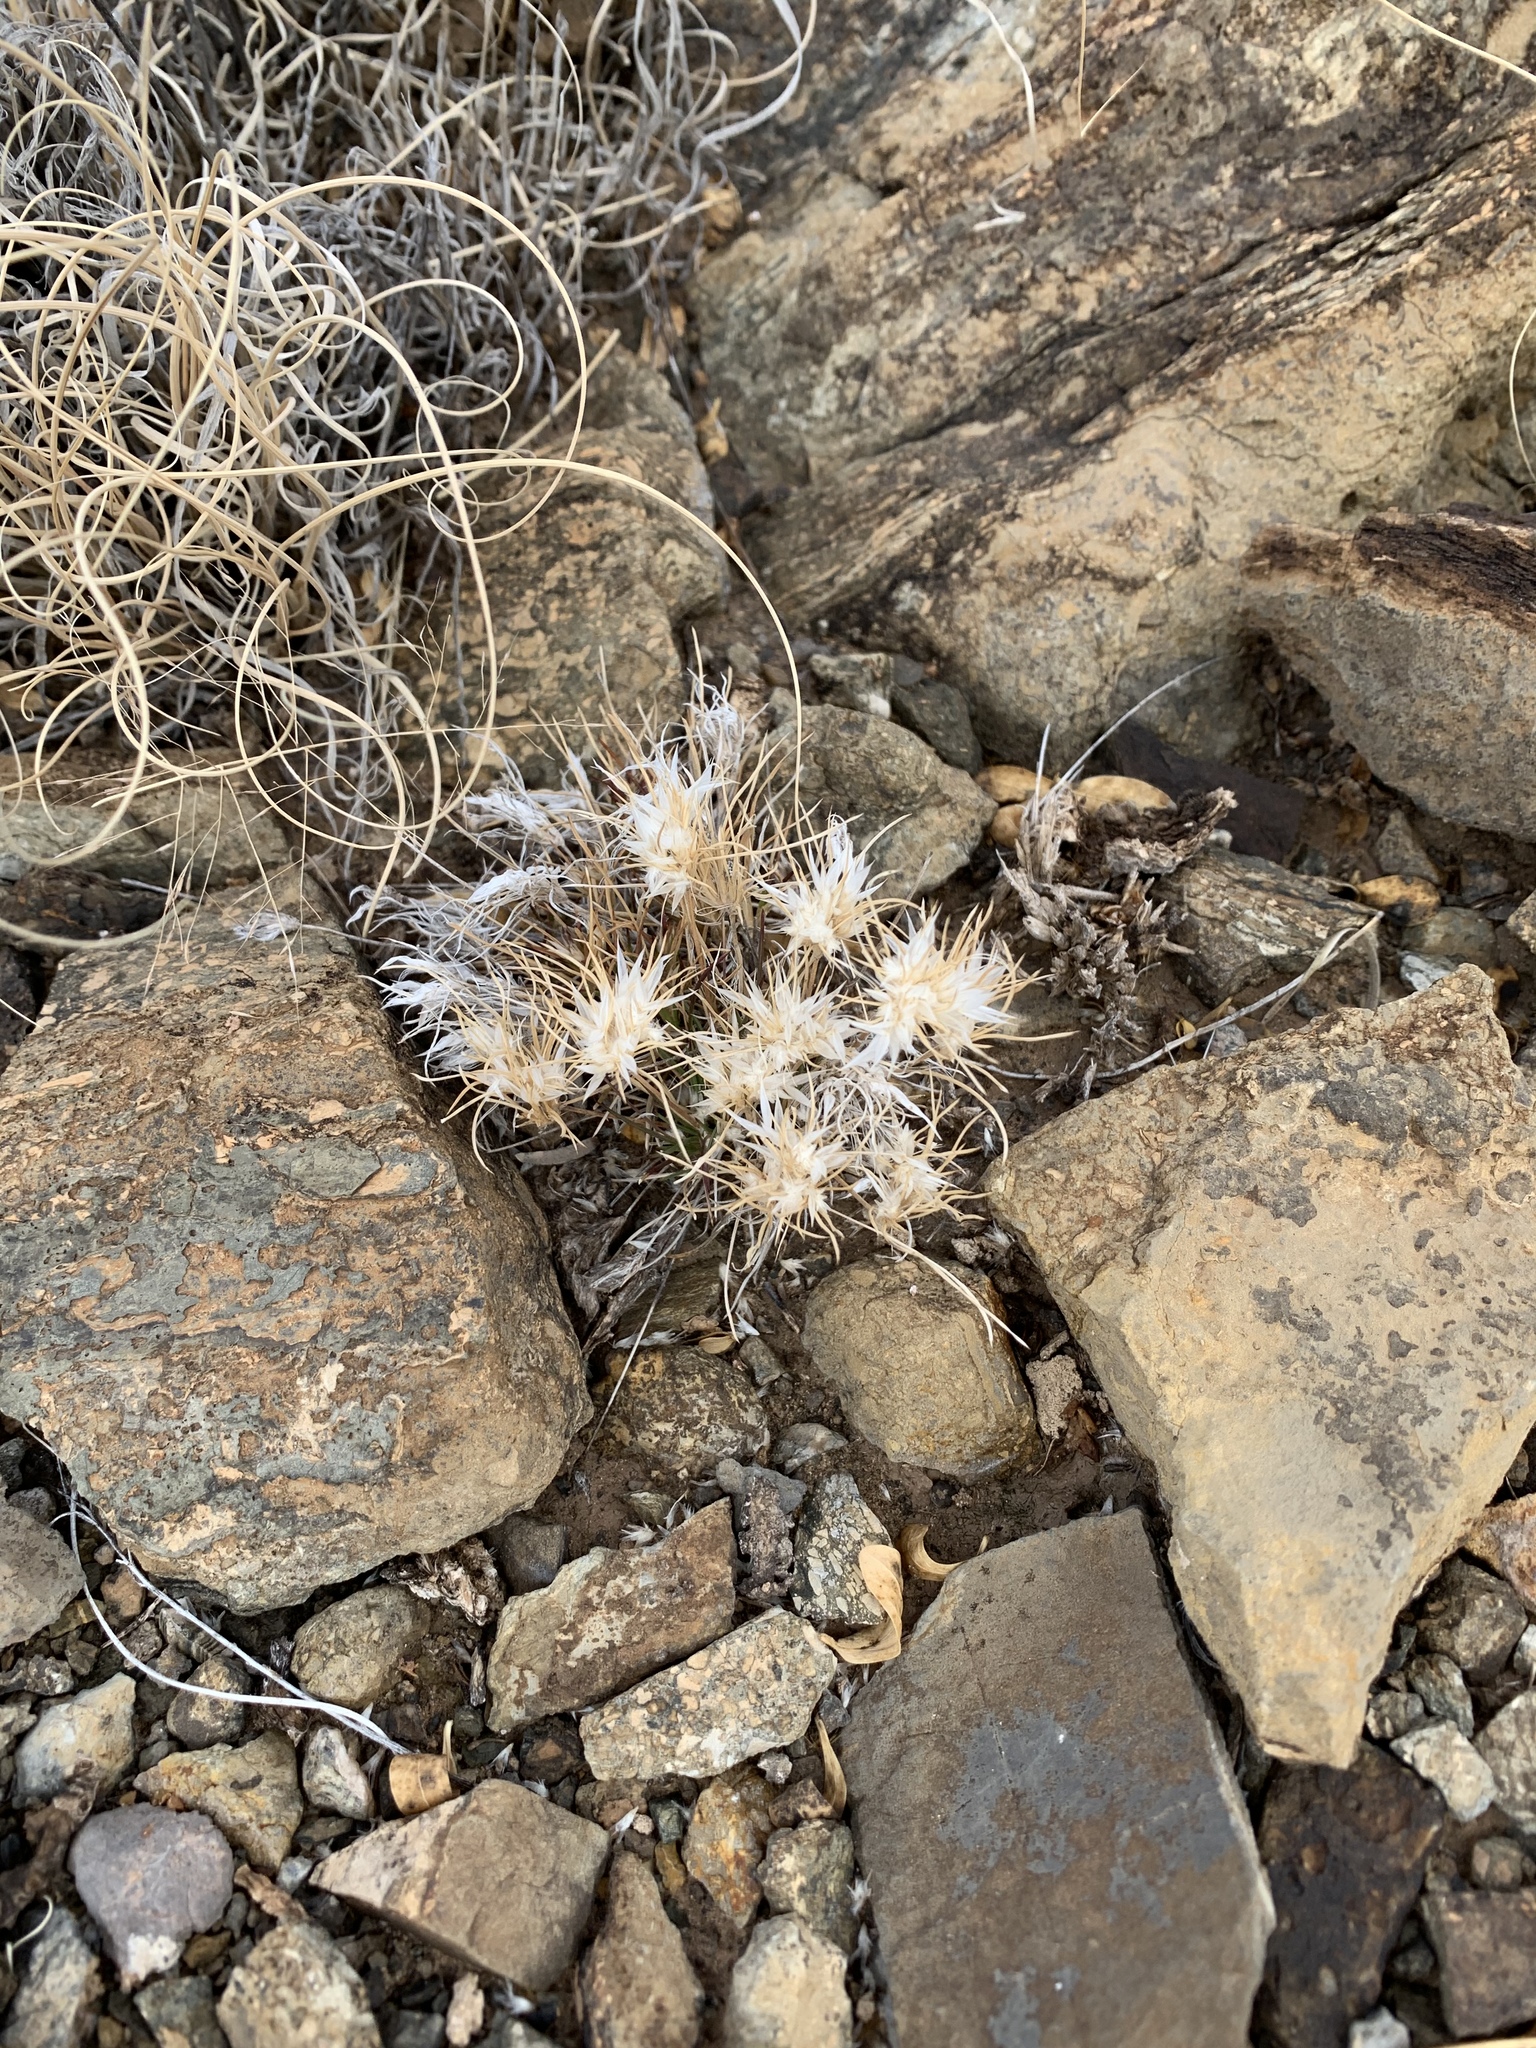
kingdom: Plantae
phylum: Tracheophyta
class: Liliopsida
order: Poales
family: Poaceae
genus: Dasyochloa
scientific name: Dasyochloa pulchella
